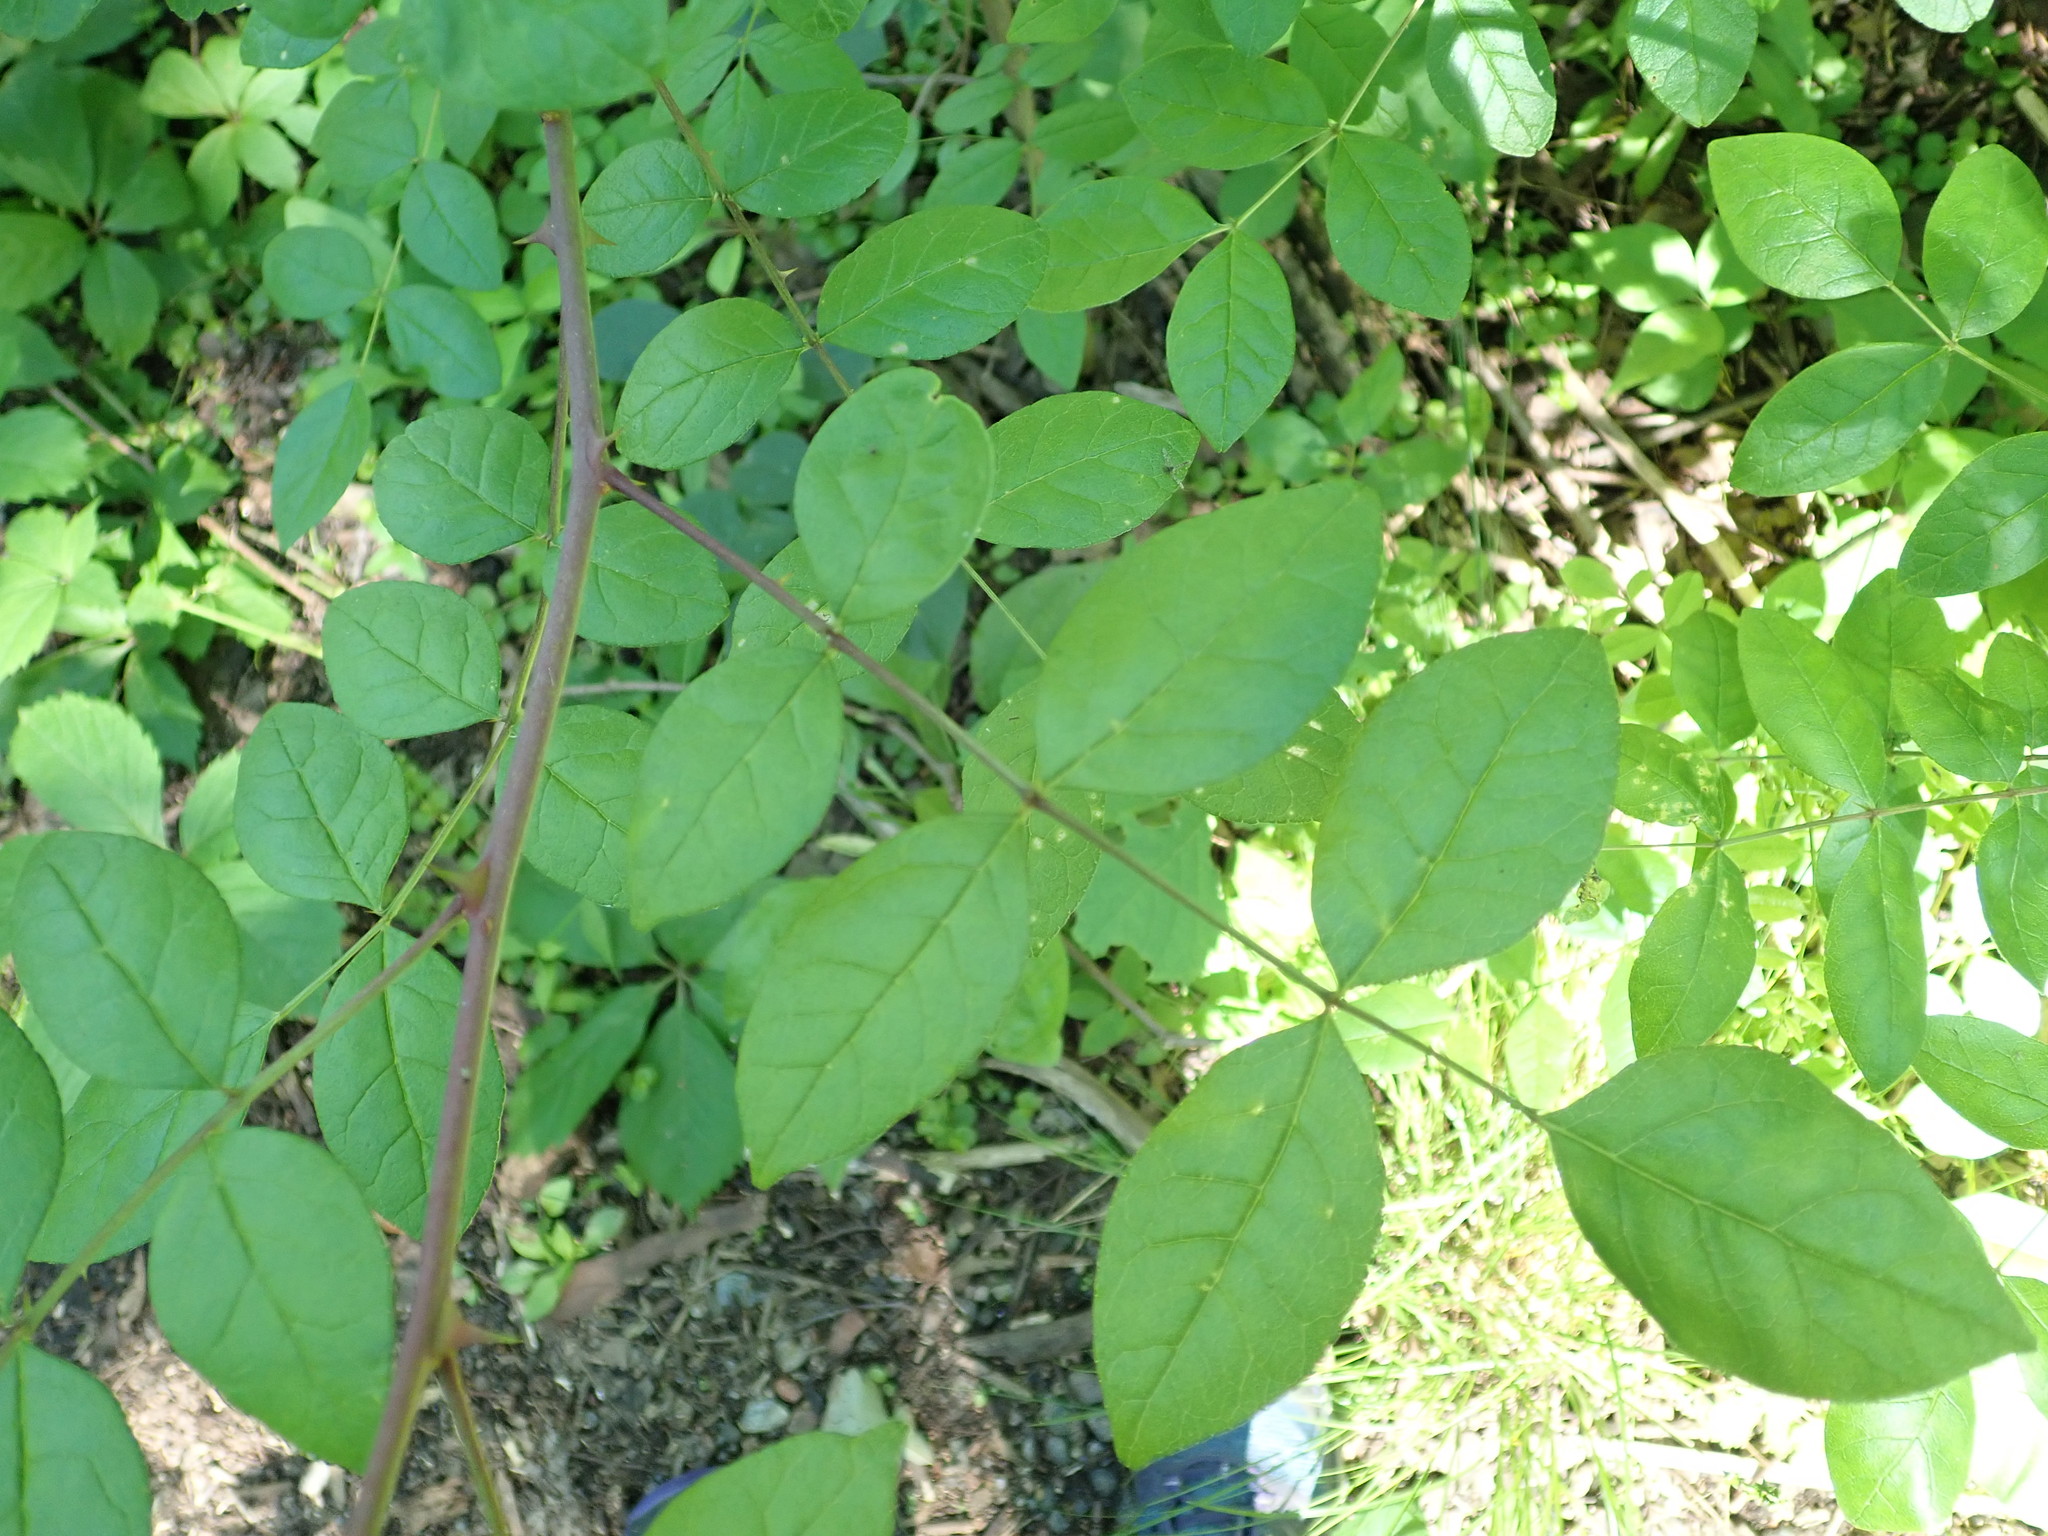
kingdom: Plantae
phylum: Tracheophyta
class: Magnoliopsida
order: Sapindales
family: Rutaceae
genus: Zanthoxylum
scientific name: Zanthoxylum americanum
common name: Northern prickly-ash
